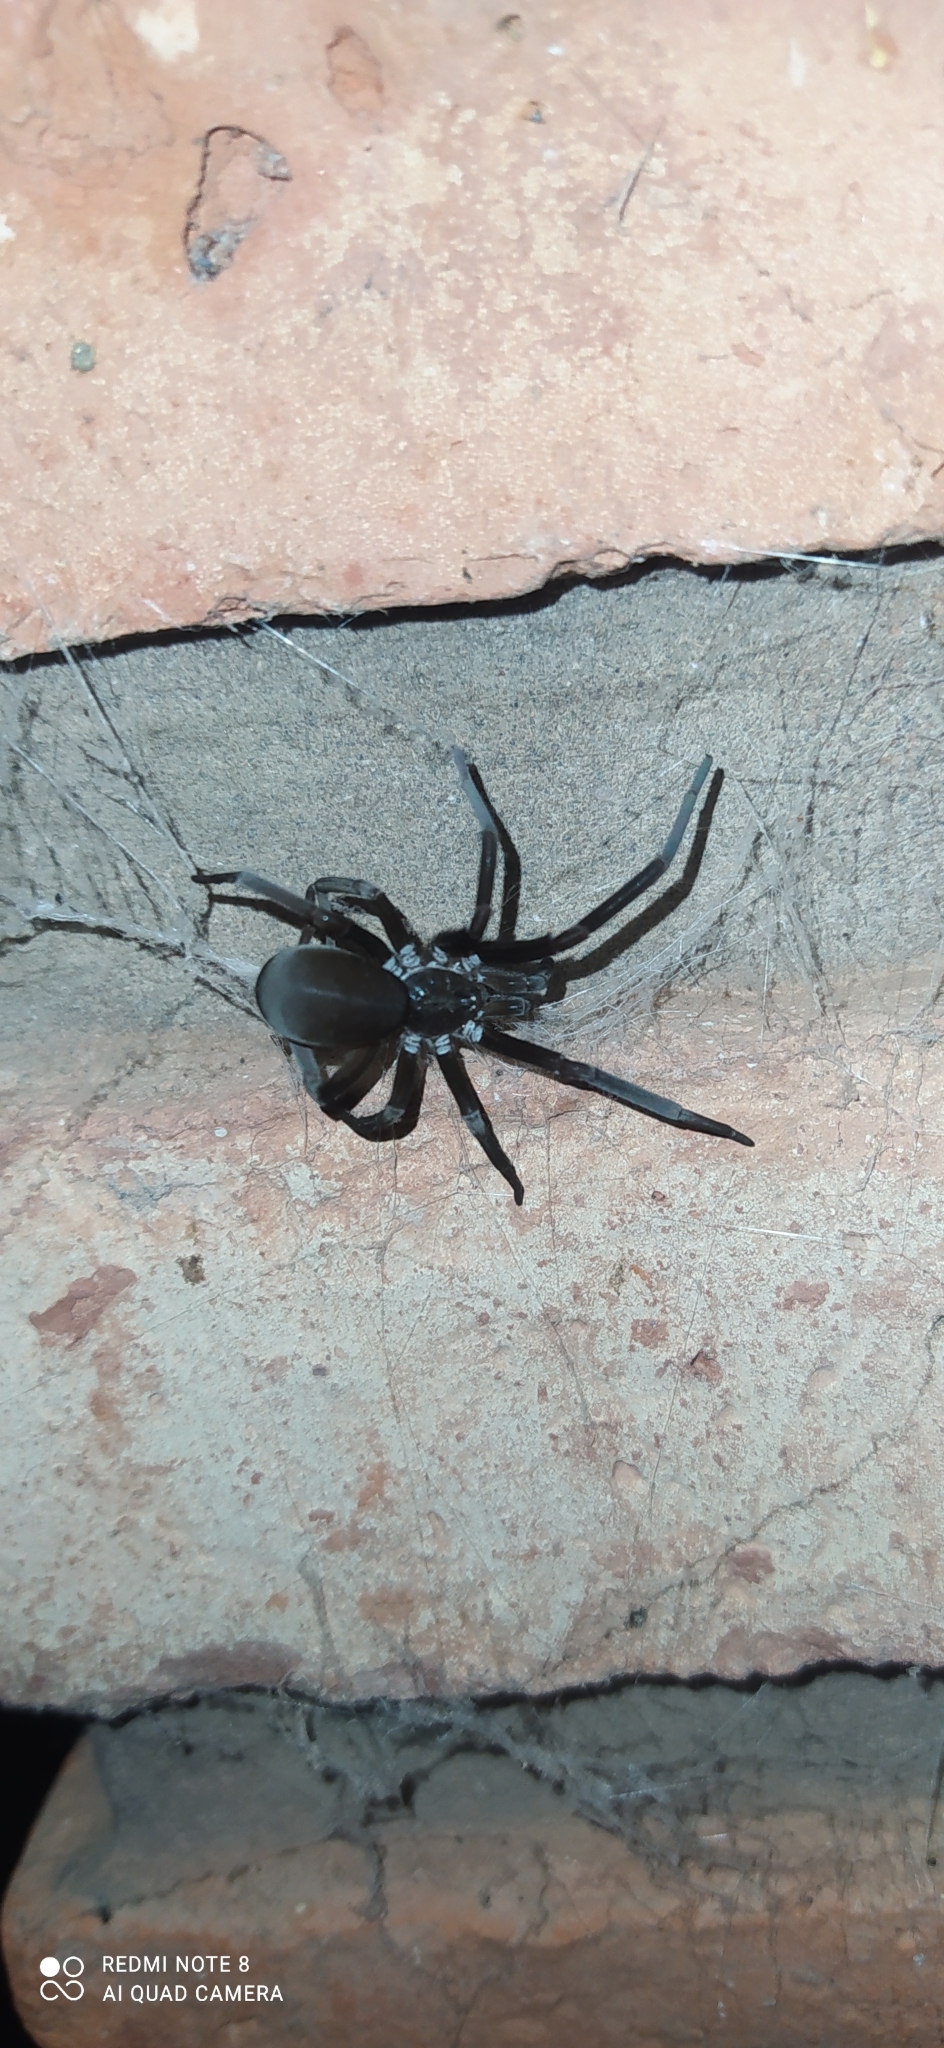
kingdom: Animalia
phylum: Arthropoda
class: Arachnida
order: Araneae
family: Filistatidae
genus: Kukulcania
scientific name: Kukulcania hibernalis
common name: Crevice weaver
